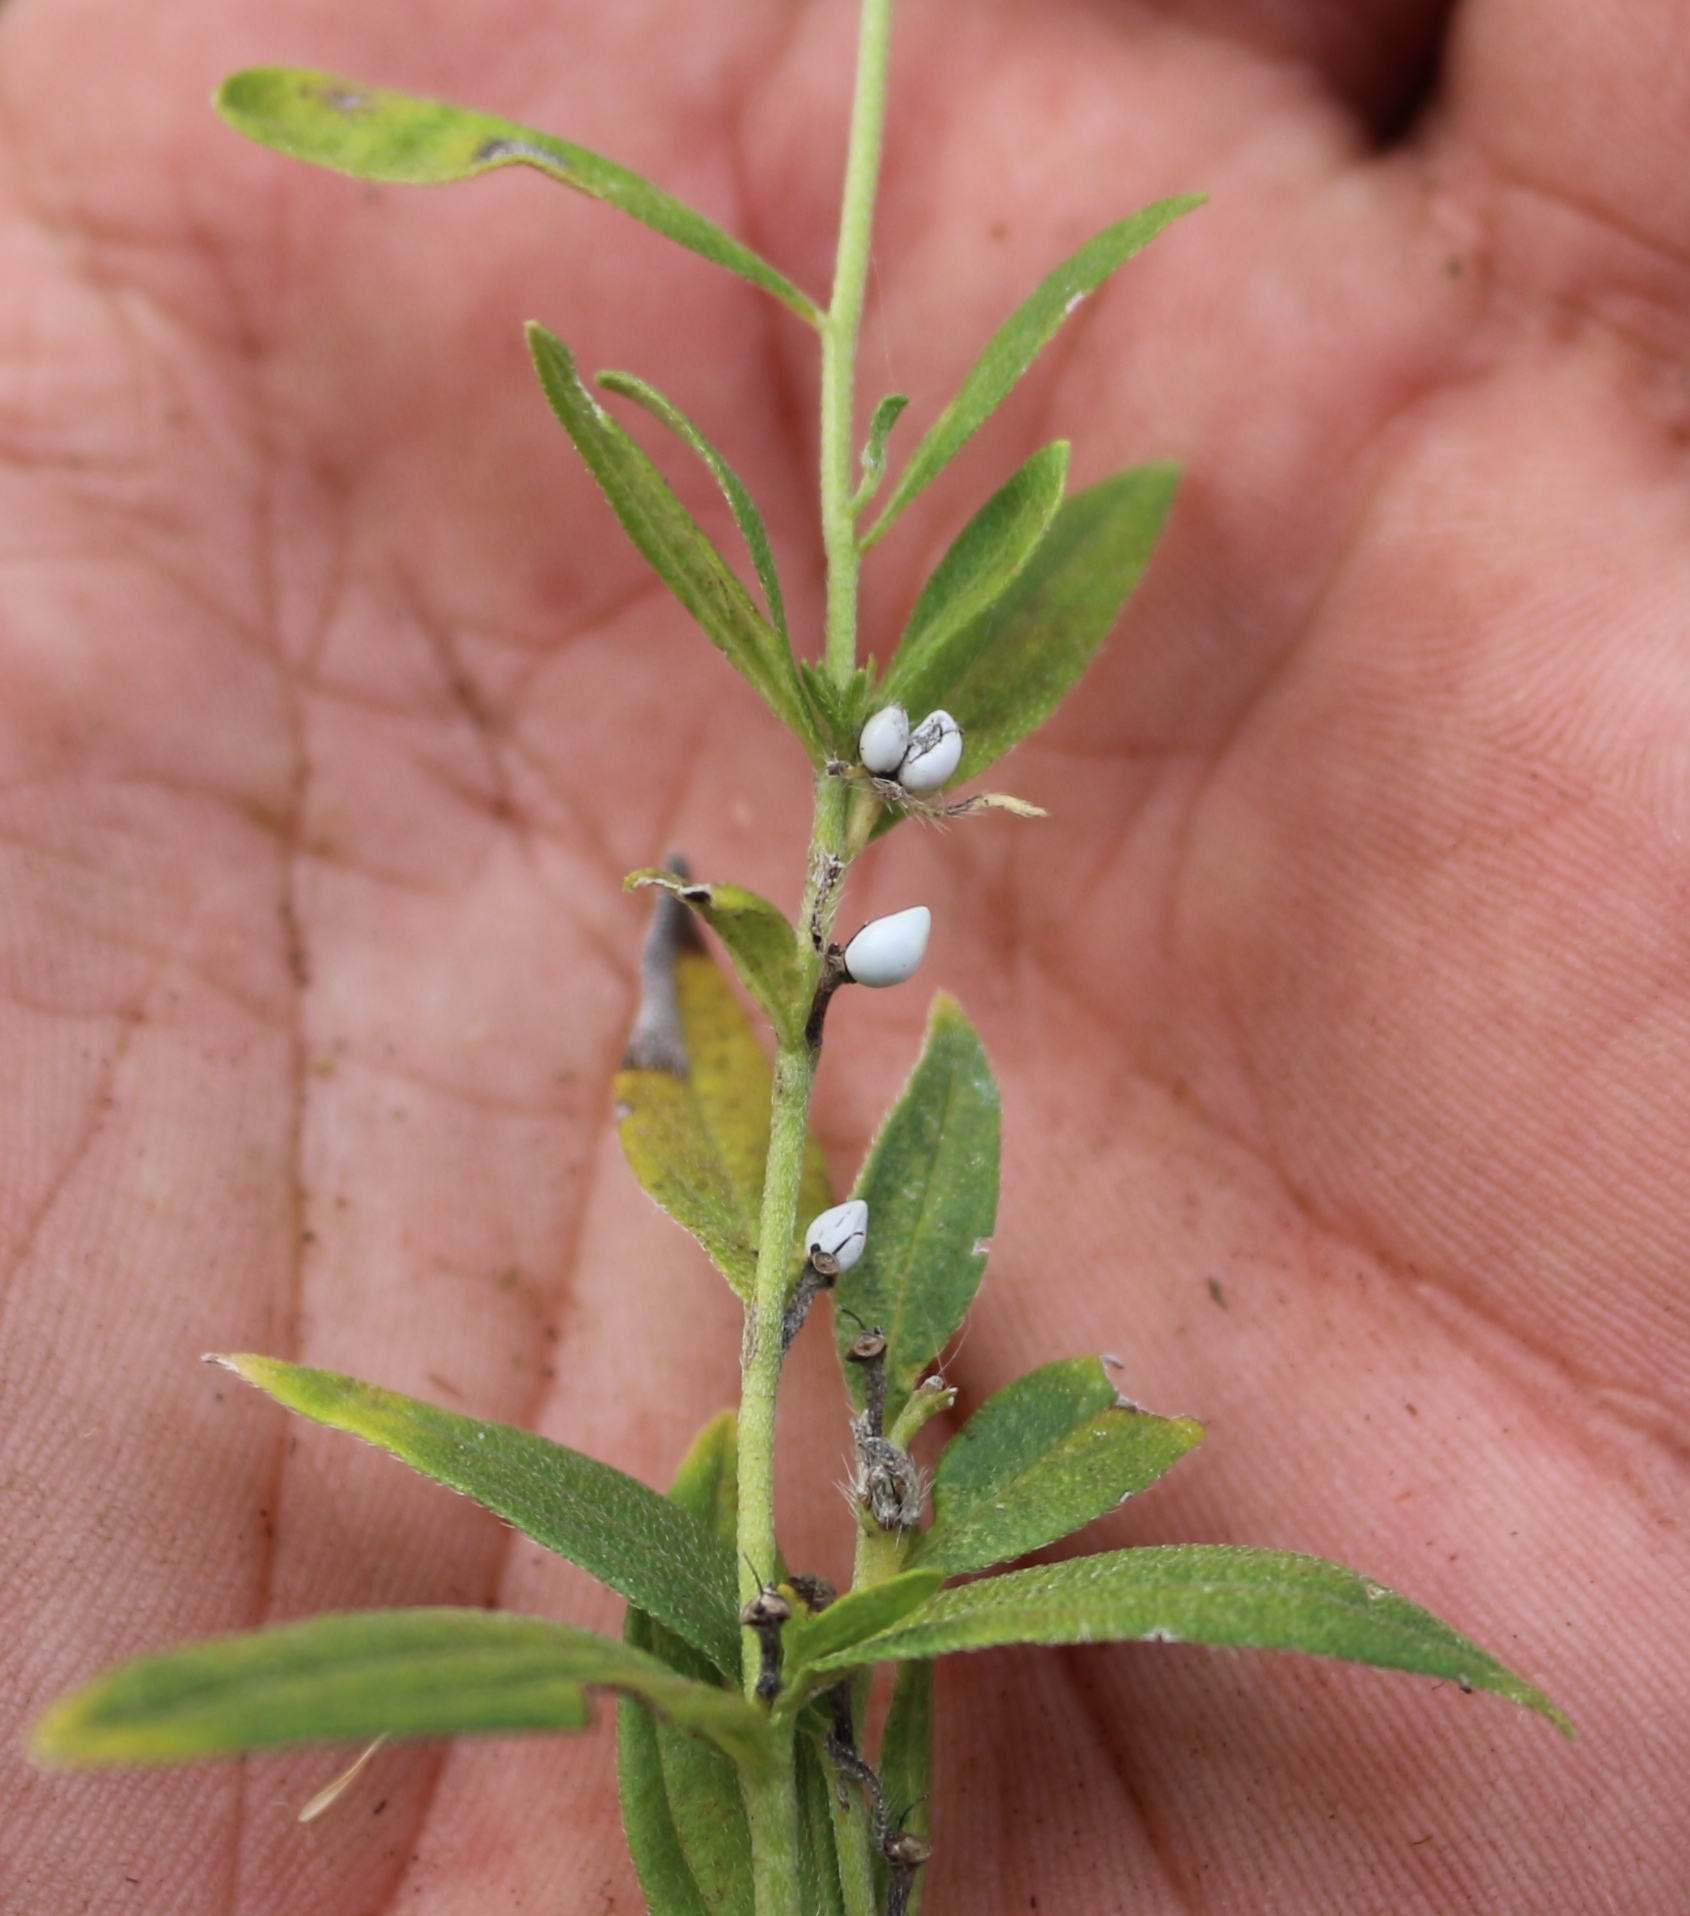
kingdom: Plantae
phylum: Tracheophyta
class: Magnoliopsida
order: Boraginales
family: Boraginaceae
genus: Lithospermum
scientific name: Lithospermum officinale
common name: Common gromwell
